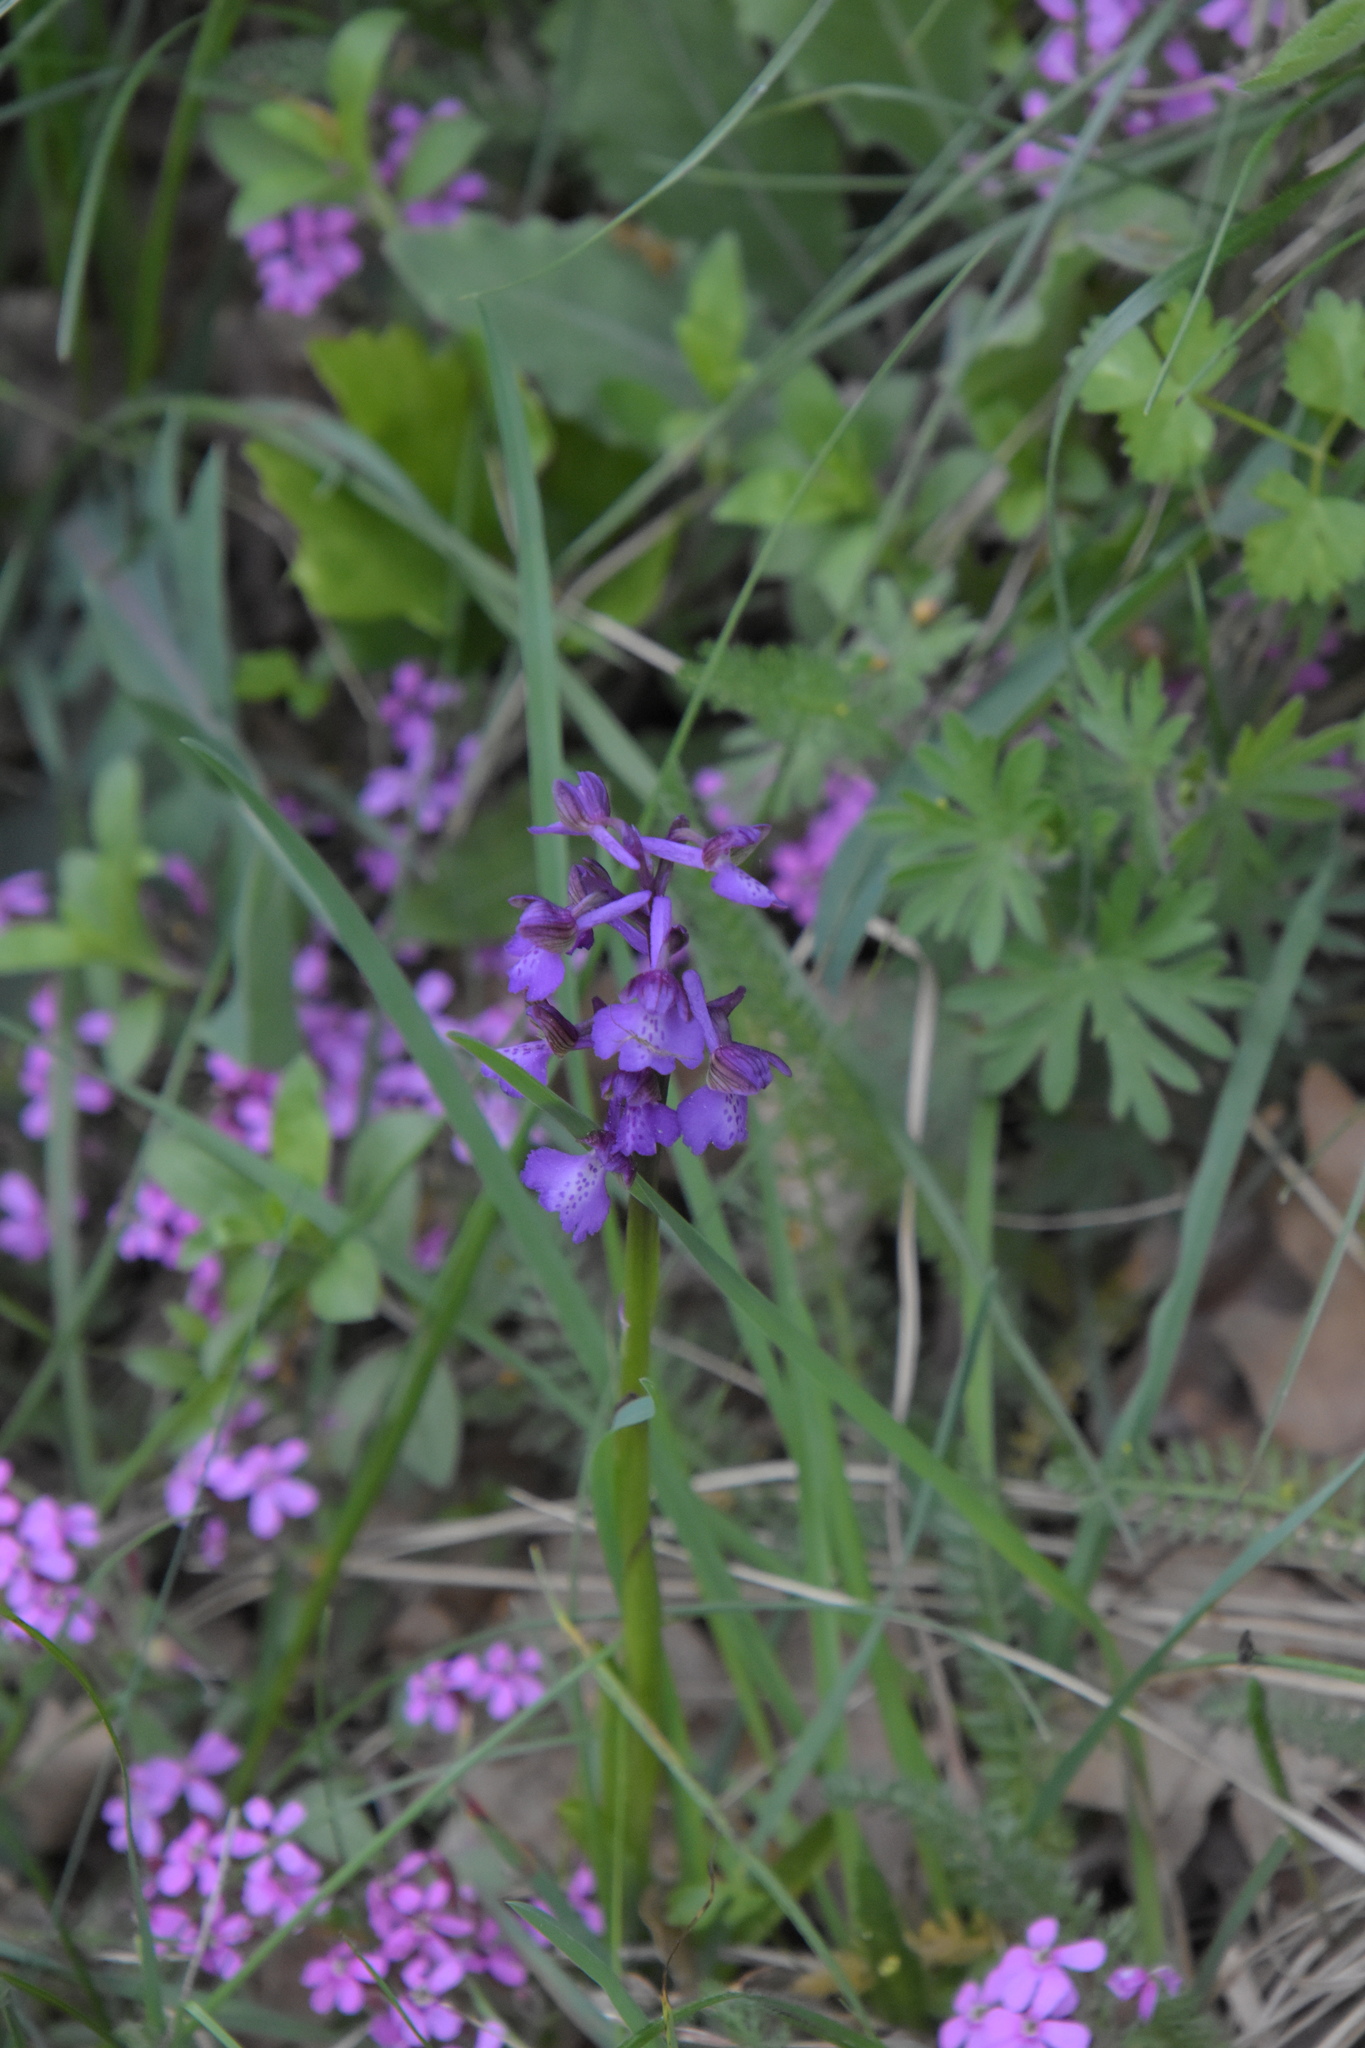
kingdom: Plantae
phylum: Tracheophyta
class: Liliopsida
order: Asparagales
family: Orchidaceae
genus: Anacamptis
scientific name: Anacamptis morio
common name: Green-winged orchid
